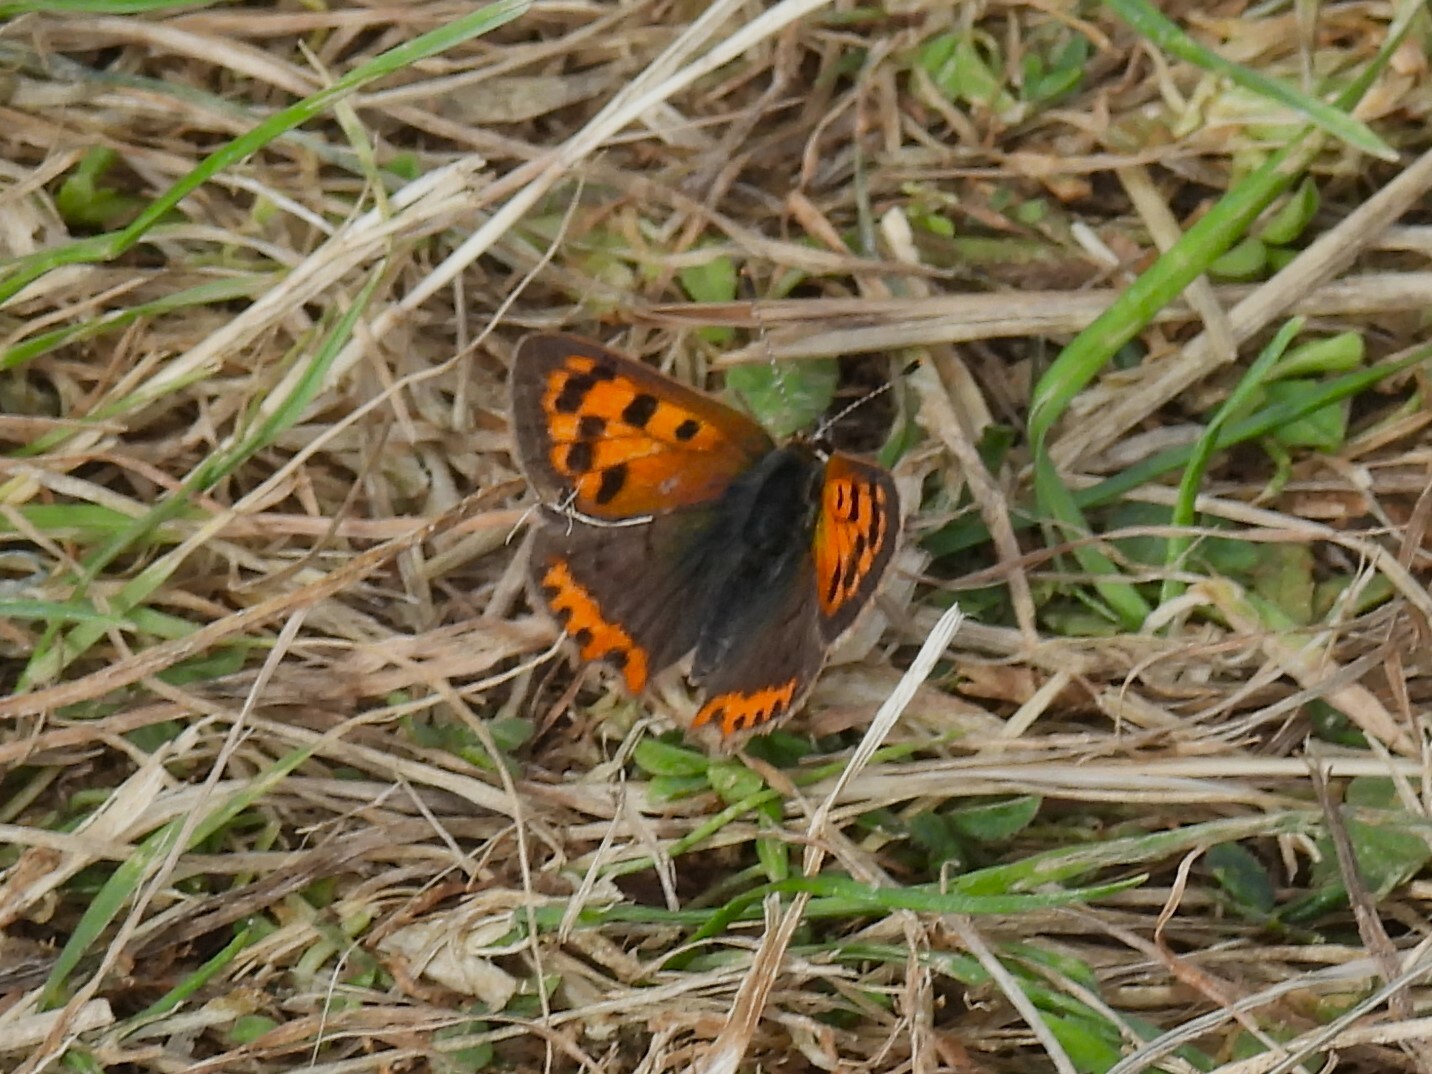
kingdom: Animalia
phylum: Arthropoda
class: Insecta
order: Lepidoptera
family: Lycaenidae
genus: Lycaena
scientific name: Lycaena phlaeas
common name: Small copper
